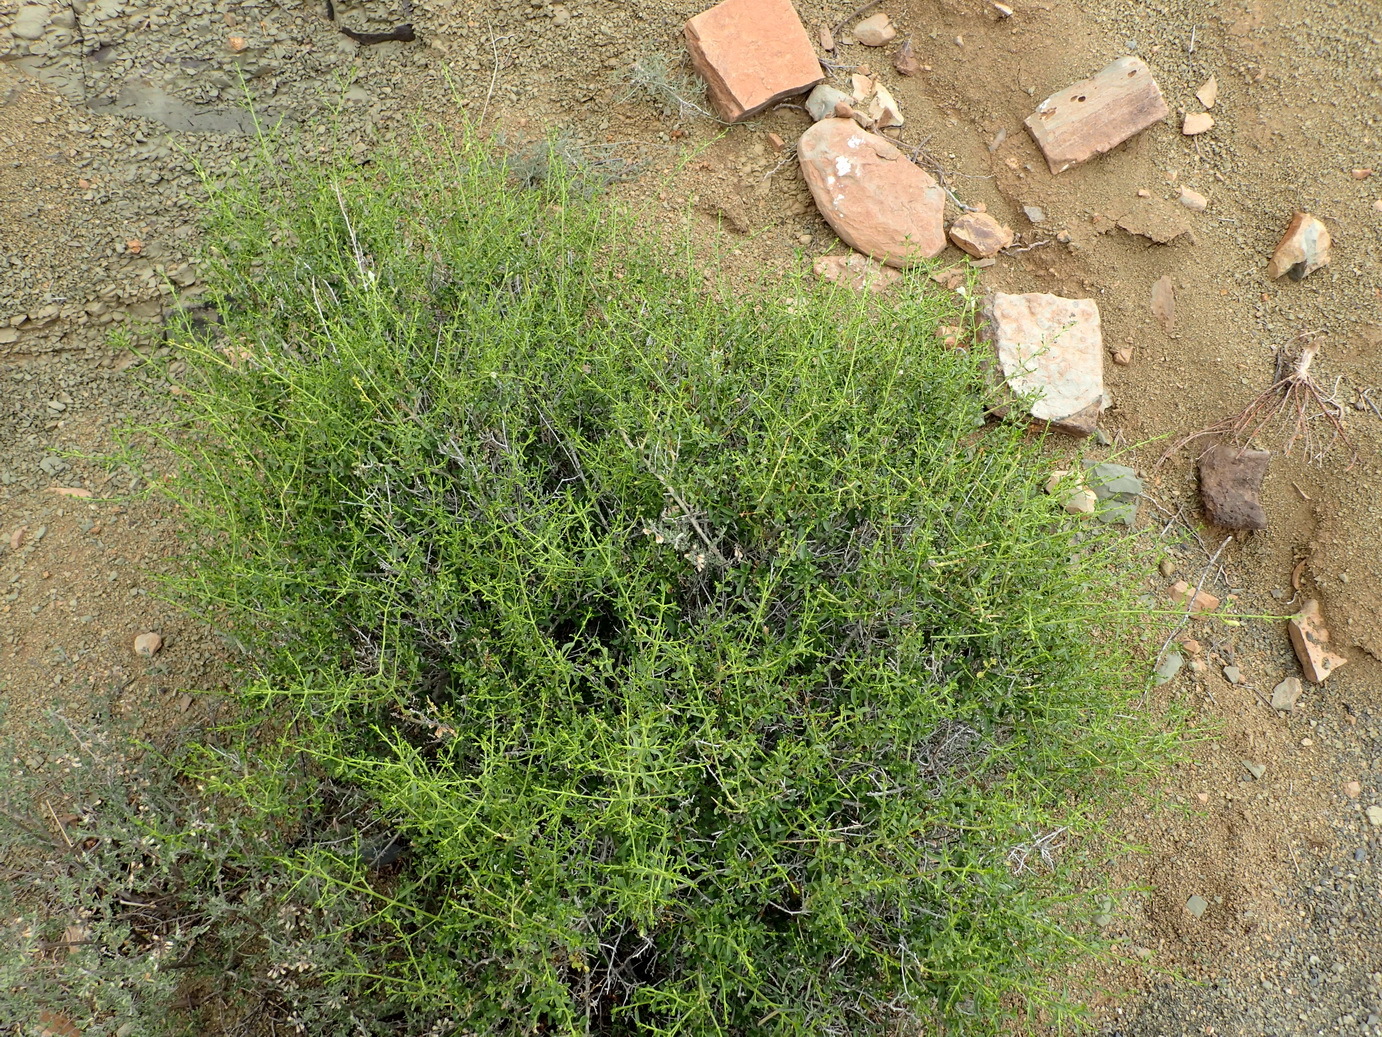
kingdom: Plantae
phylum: Tracheophyta
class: Magnoliopsida
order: Lamiales
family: Acanthaceae
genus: Pogonospermum
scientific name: Pogonospermum
